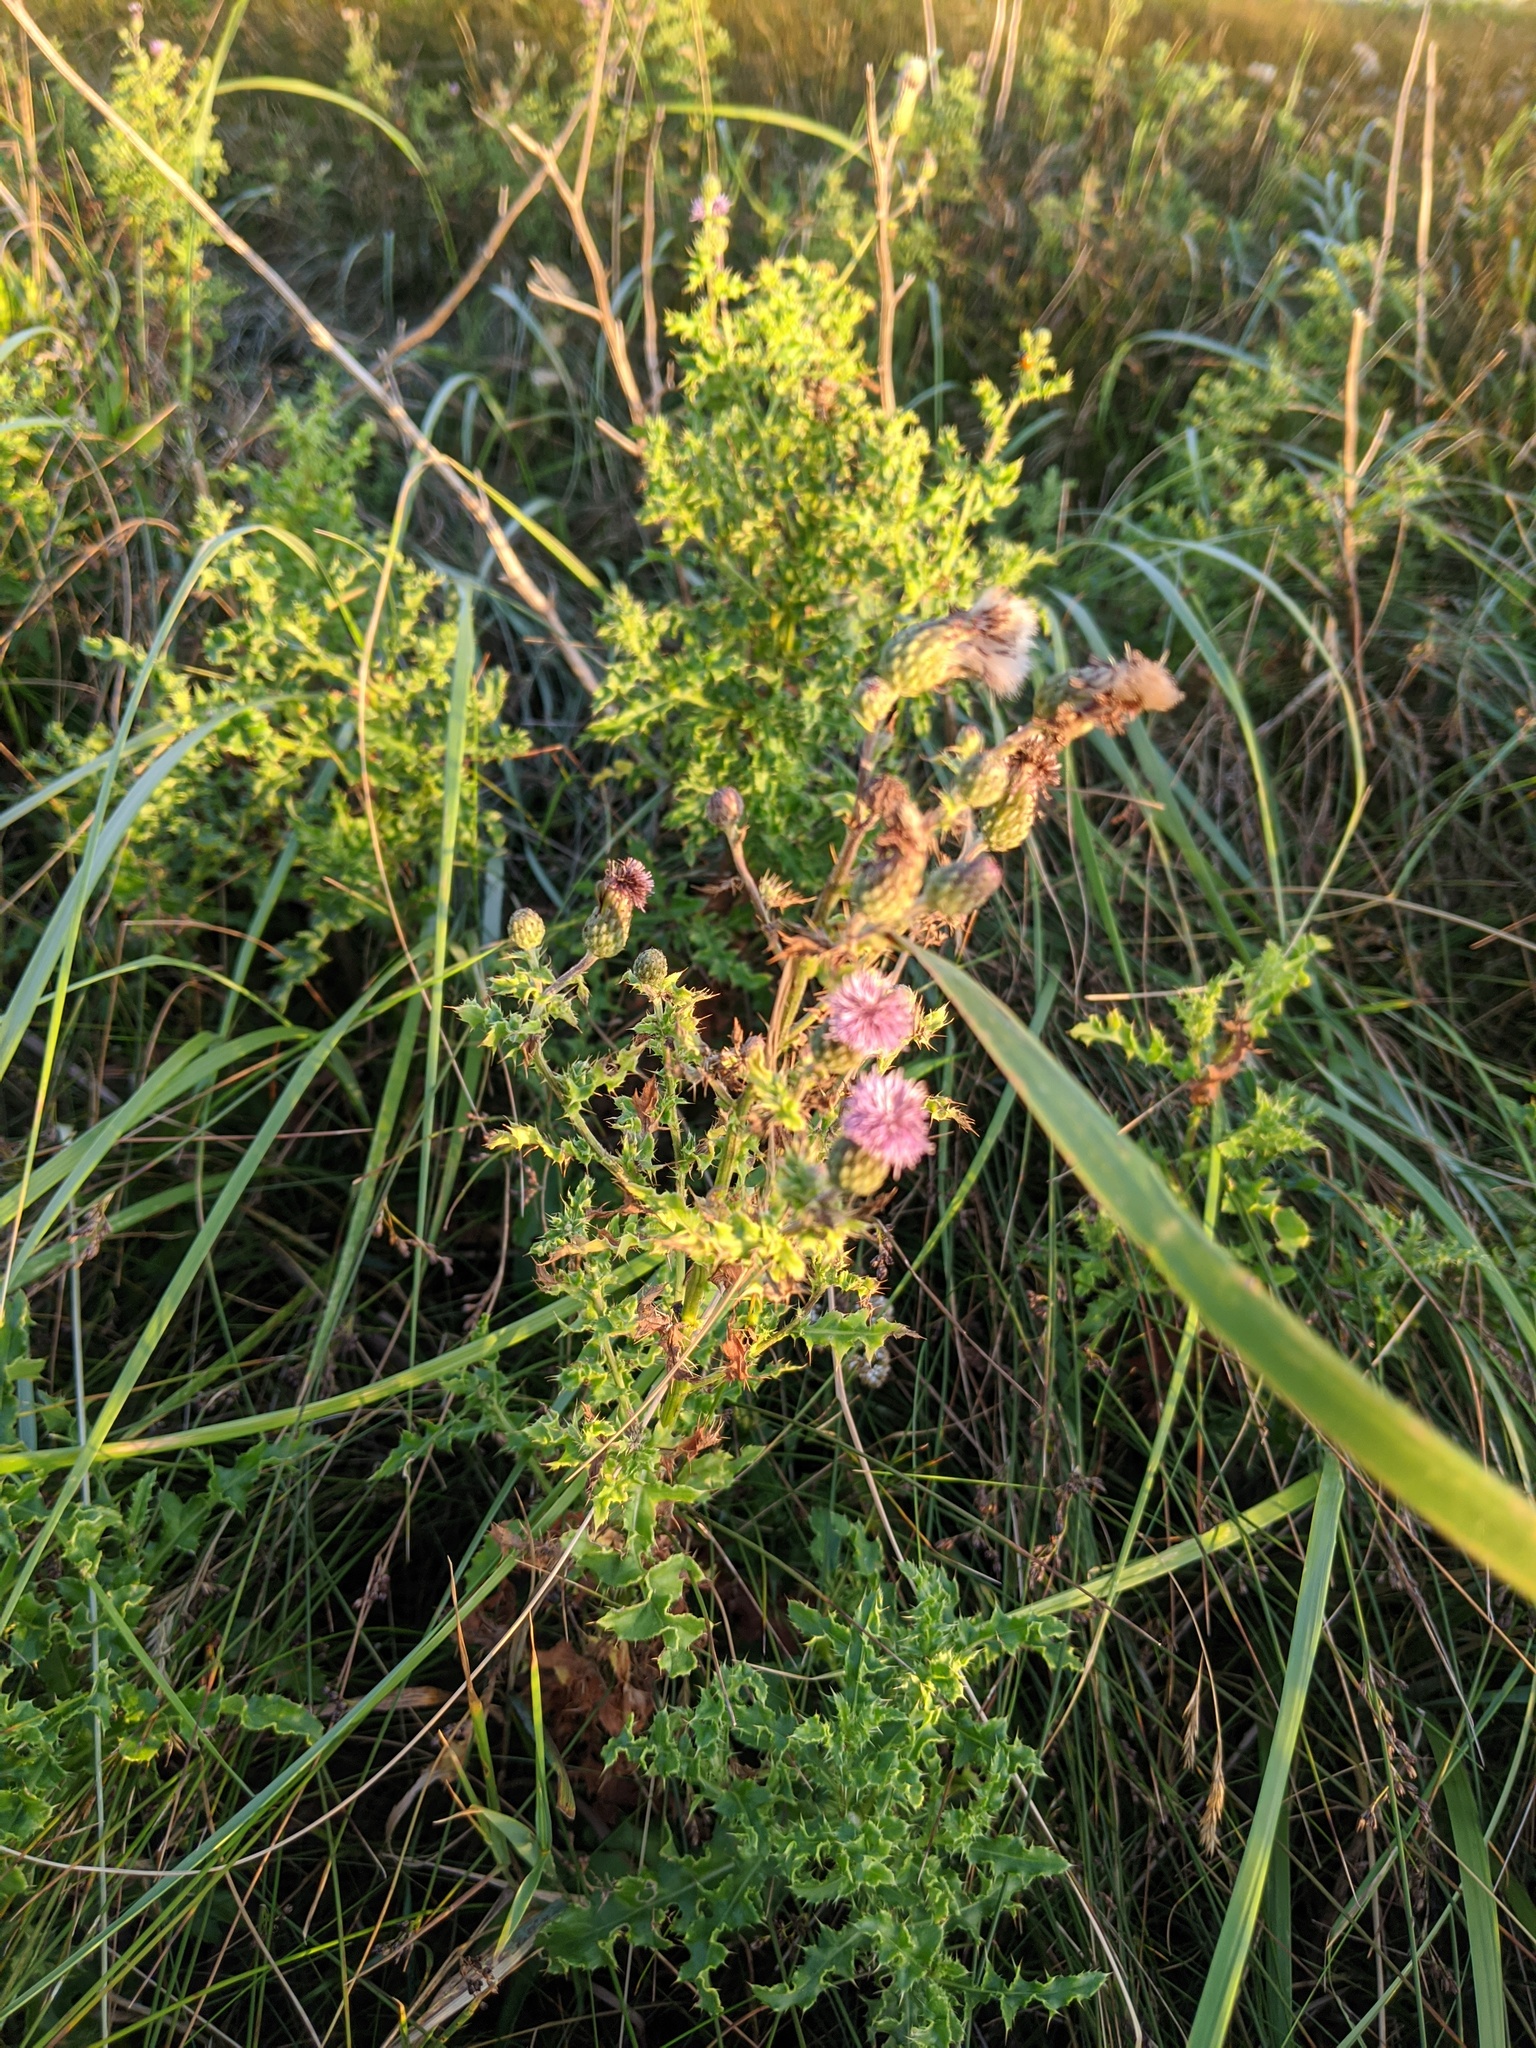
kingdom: Plantae
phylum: Tracheophyta
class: Magnoliopsida
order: Asterales
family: Asteraceae
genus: Cirsium
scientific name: Cirsium arvense
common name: Creeping thistle
